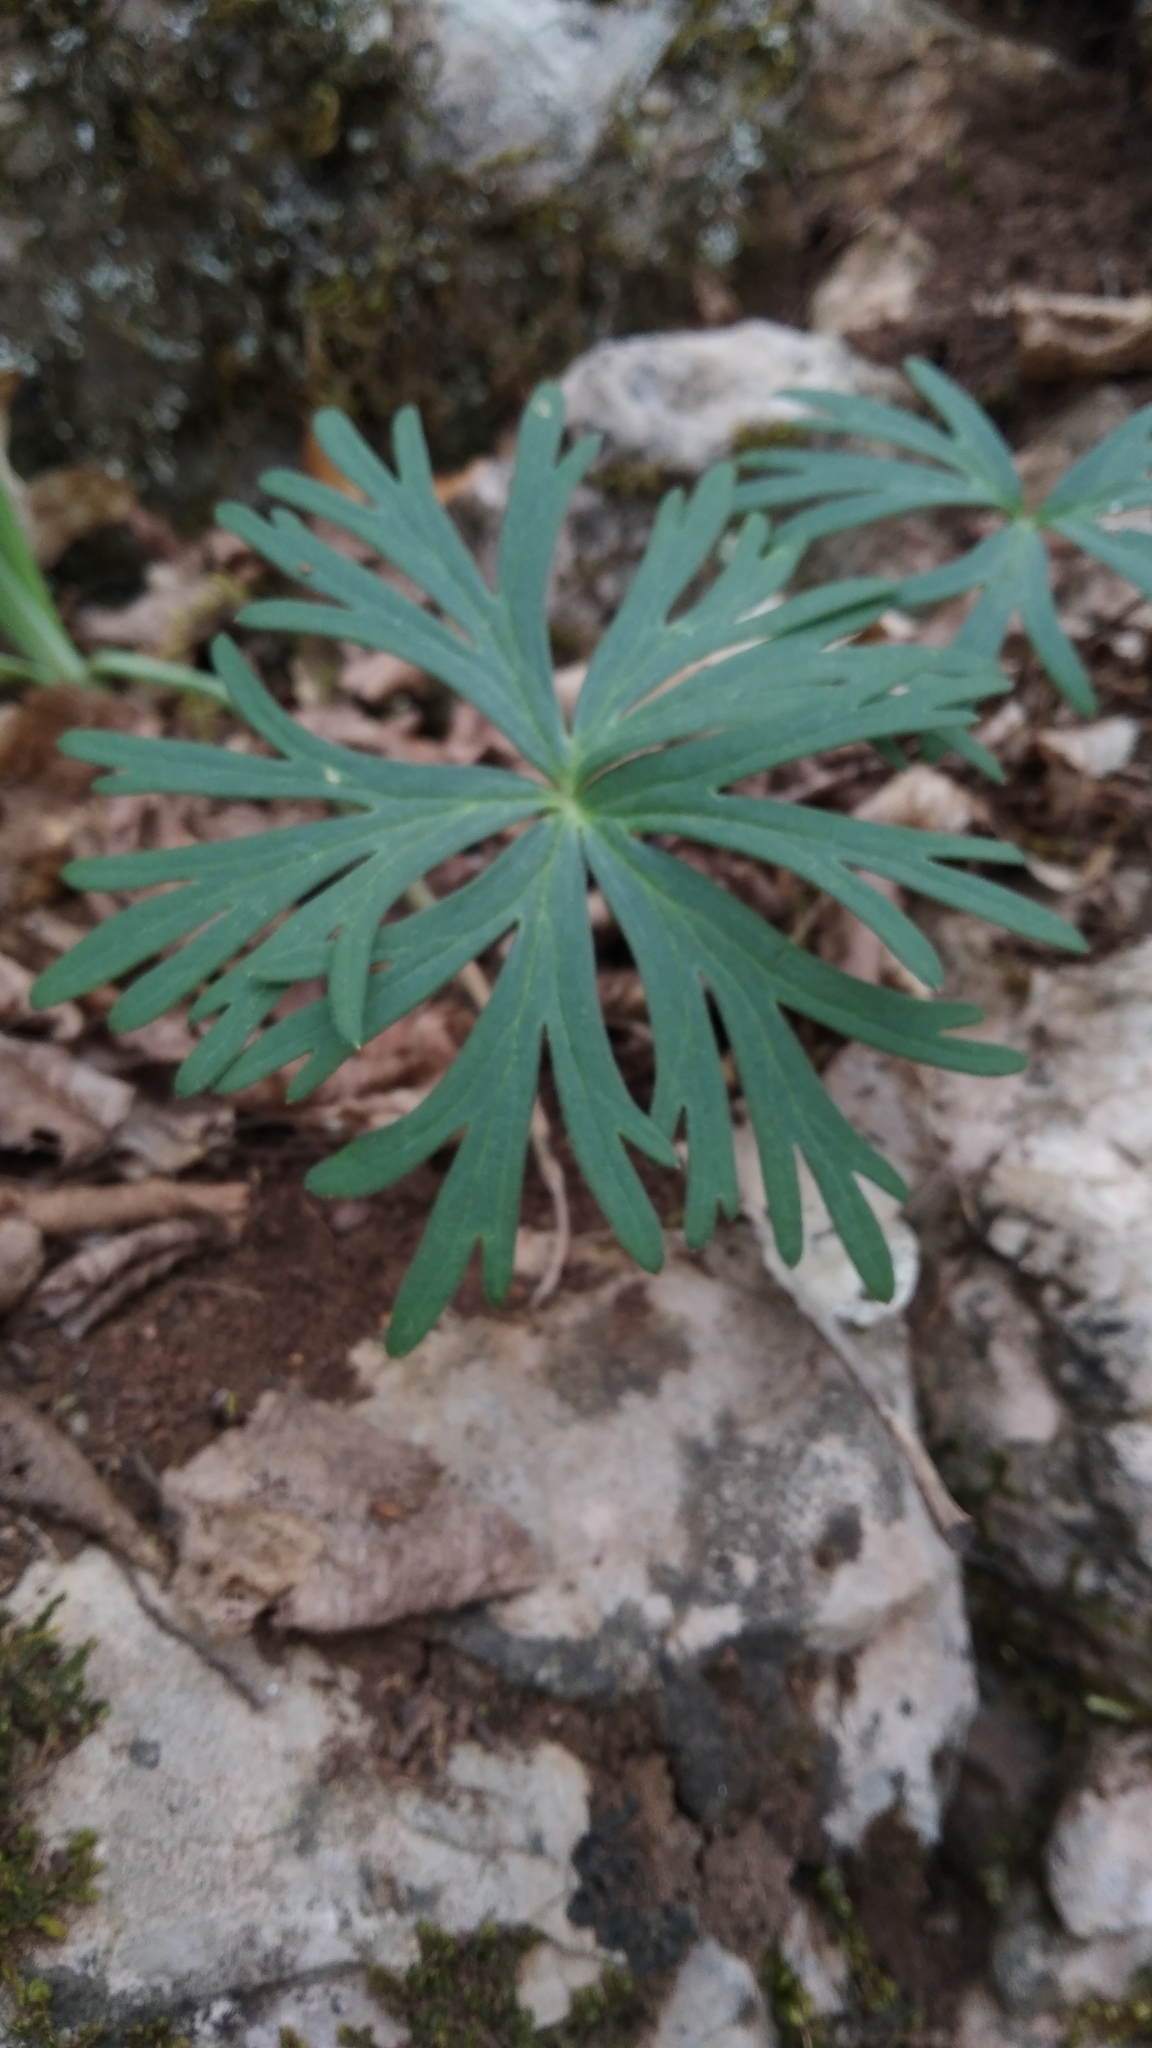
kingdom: Plantae
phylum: Tracheophyta
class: Magnoliopsida
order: Ranunculales
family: Ranunculaceae
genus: Delphinium
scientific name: Delphinium fissum
